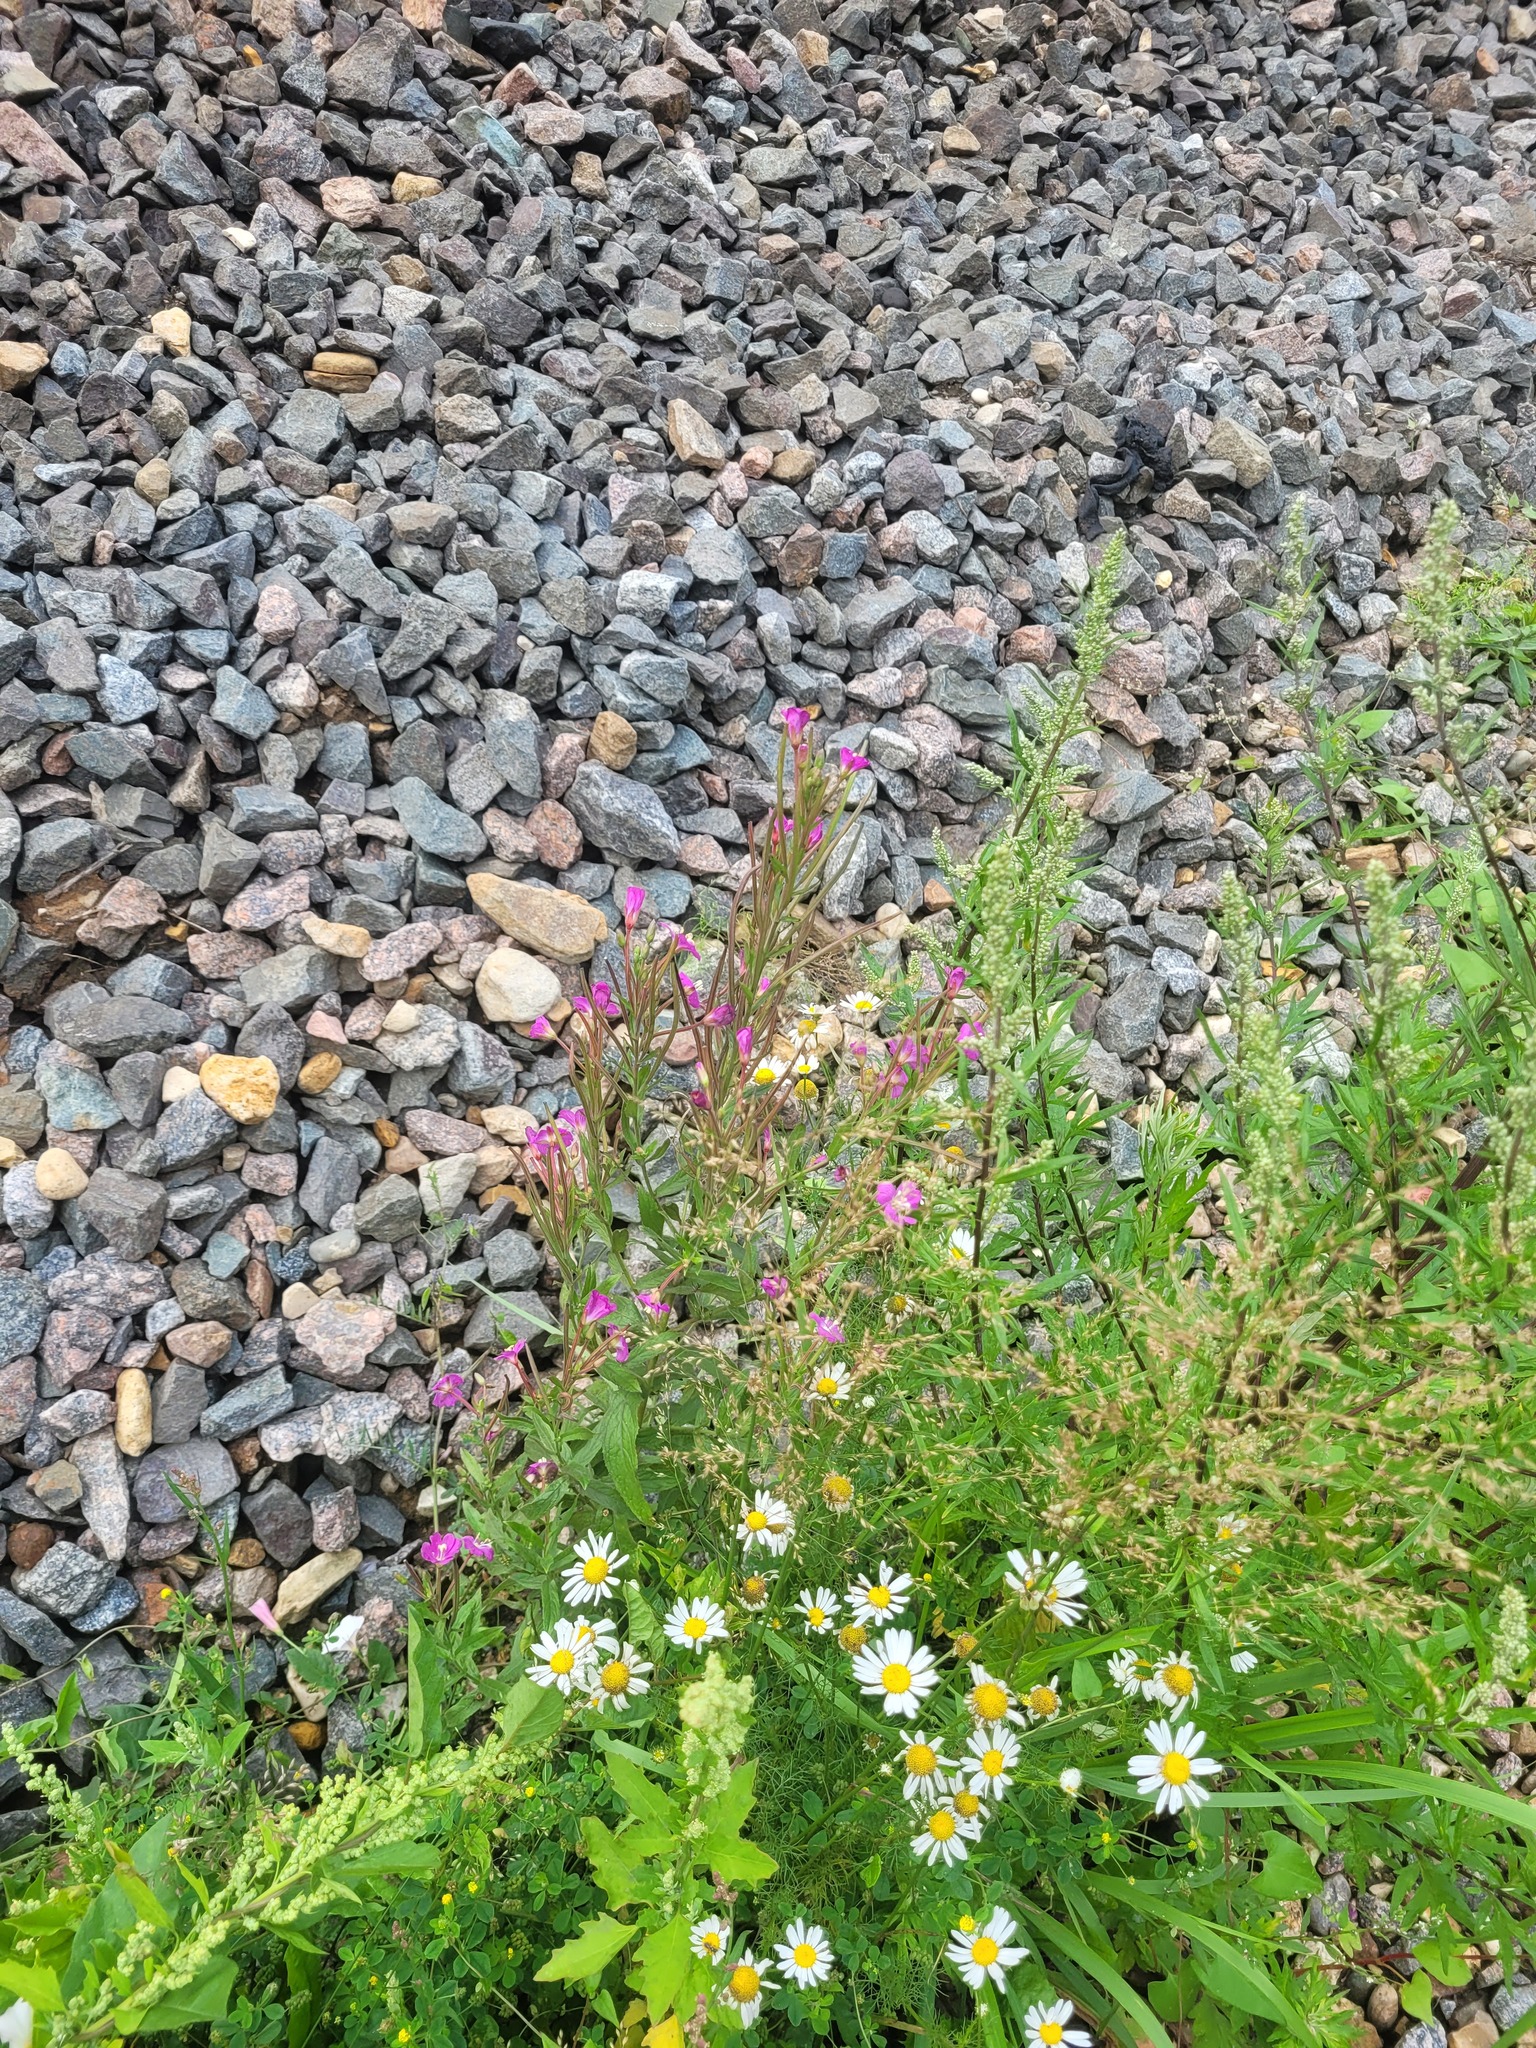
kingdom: Plantae
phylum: Tracheophyta
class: Magnoliopsida
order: Myrtales
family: Onagraceae
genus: Epilobium
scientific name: Epilobium hirsutum
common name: Great willowherb
